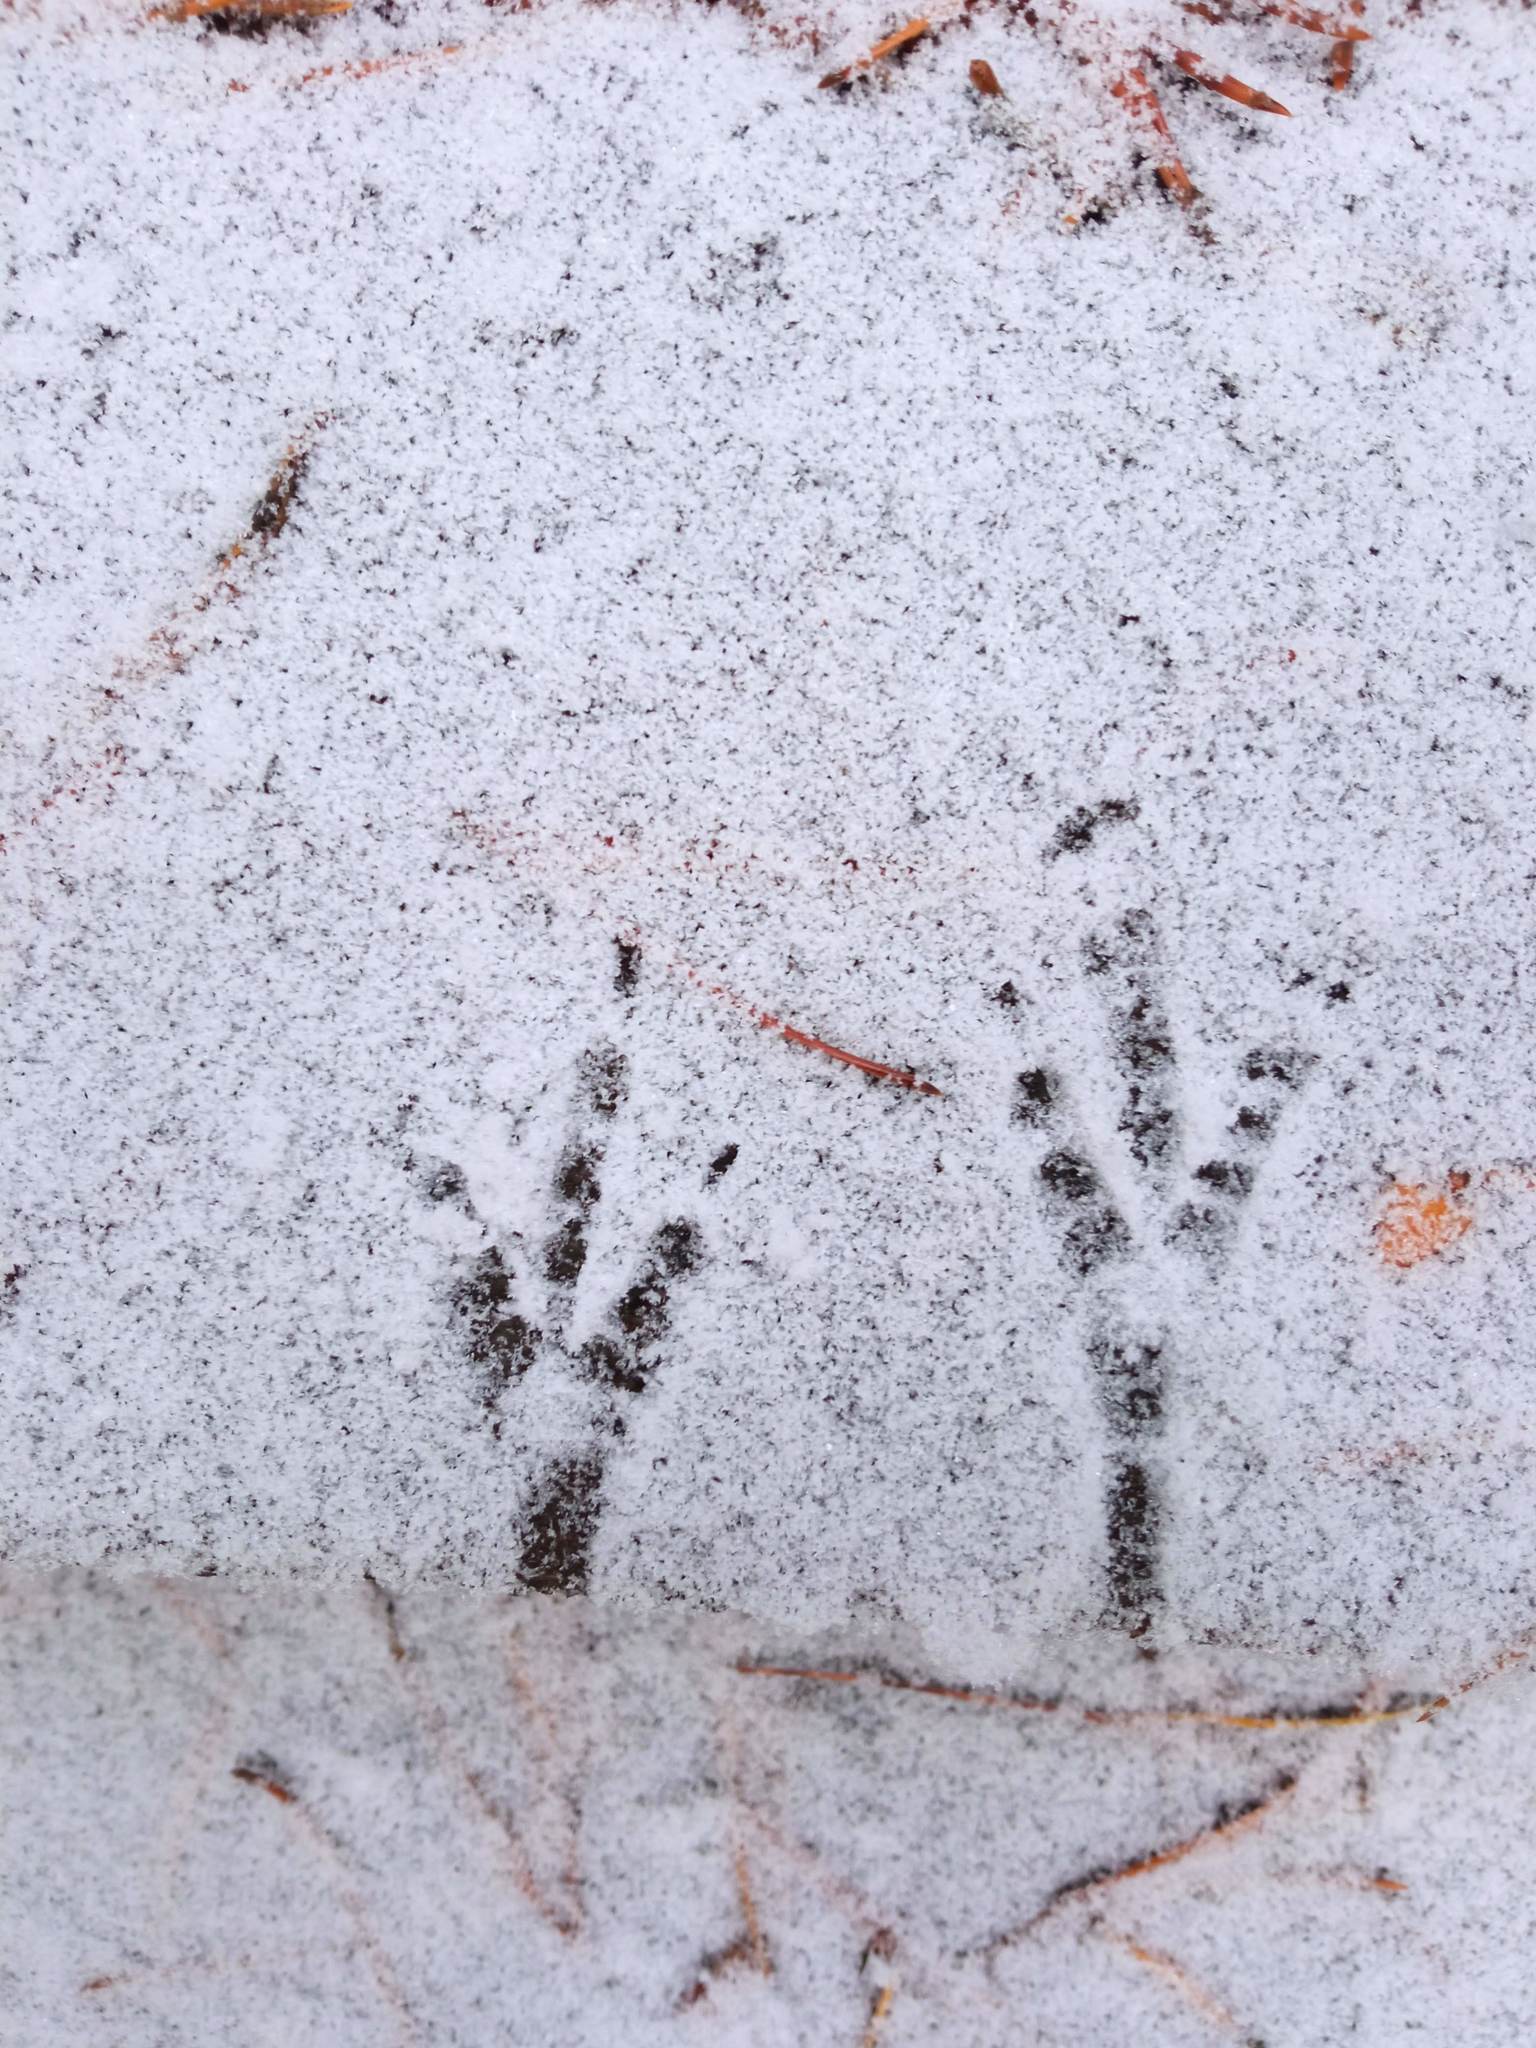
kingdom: Animalia
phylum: Chordata
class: Aves
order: Passeriformes
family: Corvidae
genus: Pica
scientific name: Pica pica
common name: Eurasian magpie
